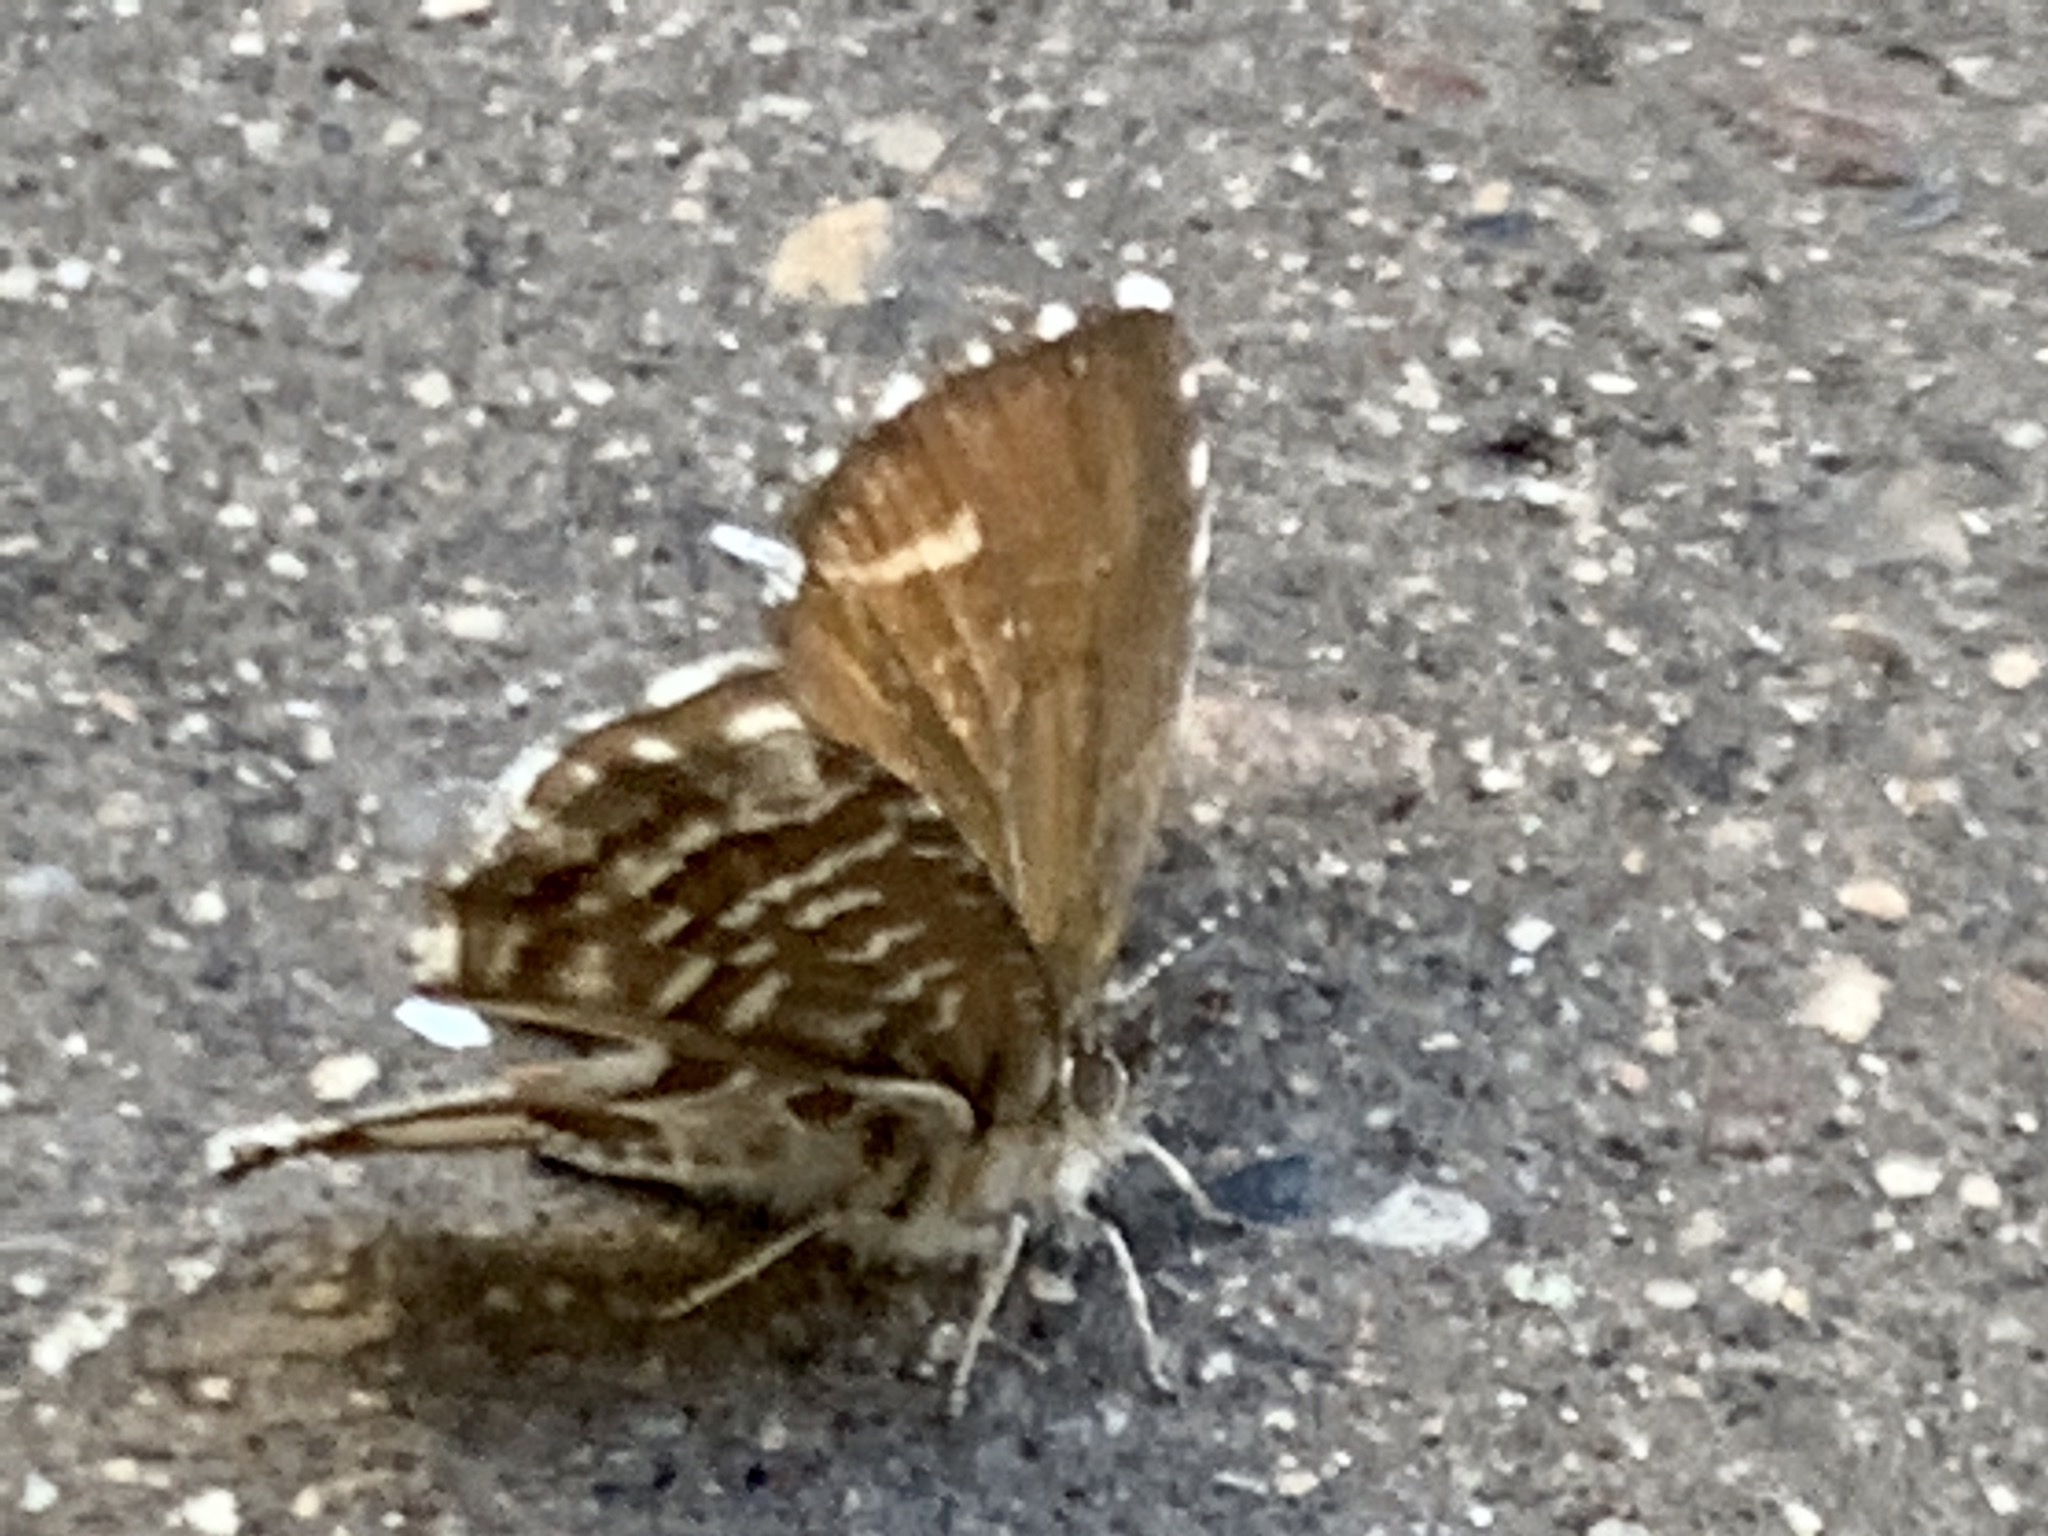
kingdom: Animalia
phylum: Arthropoda
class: Insecta
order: Lepidoptera
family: Lycaenidae
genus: Cacyreus
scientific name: Cacyreus marshalli
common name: Geranium bronze
